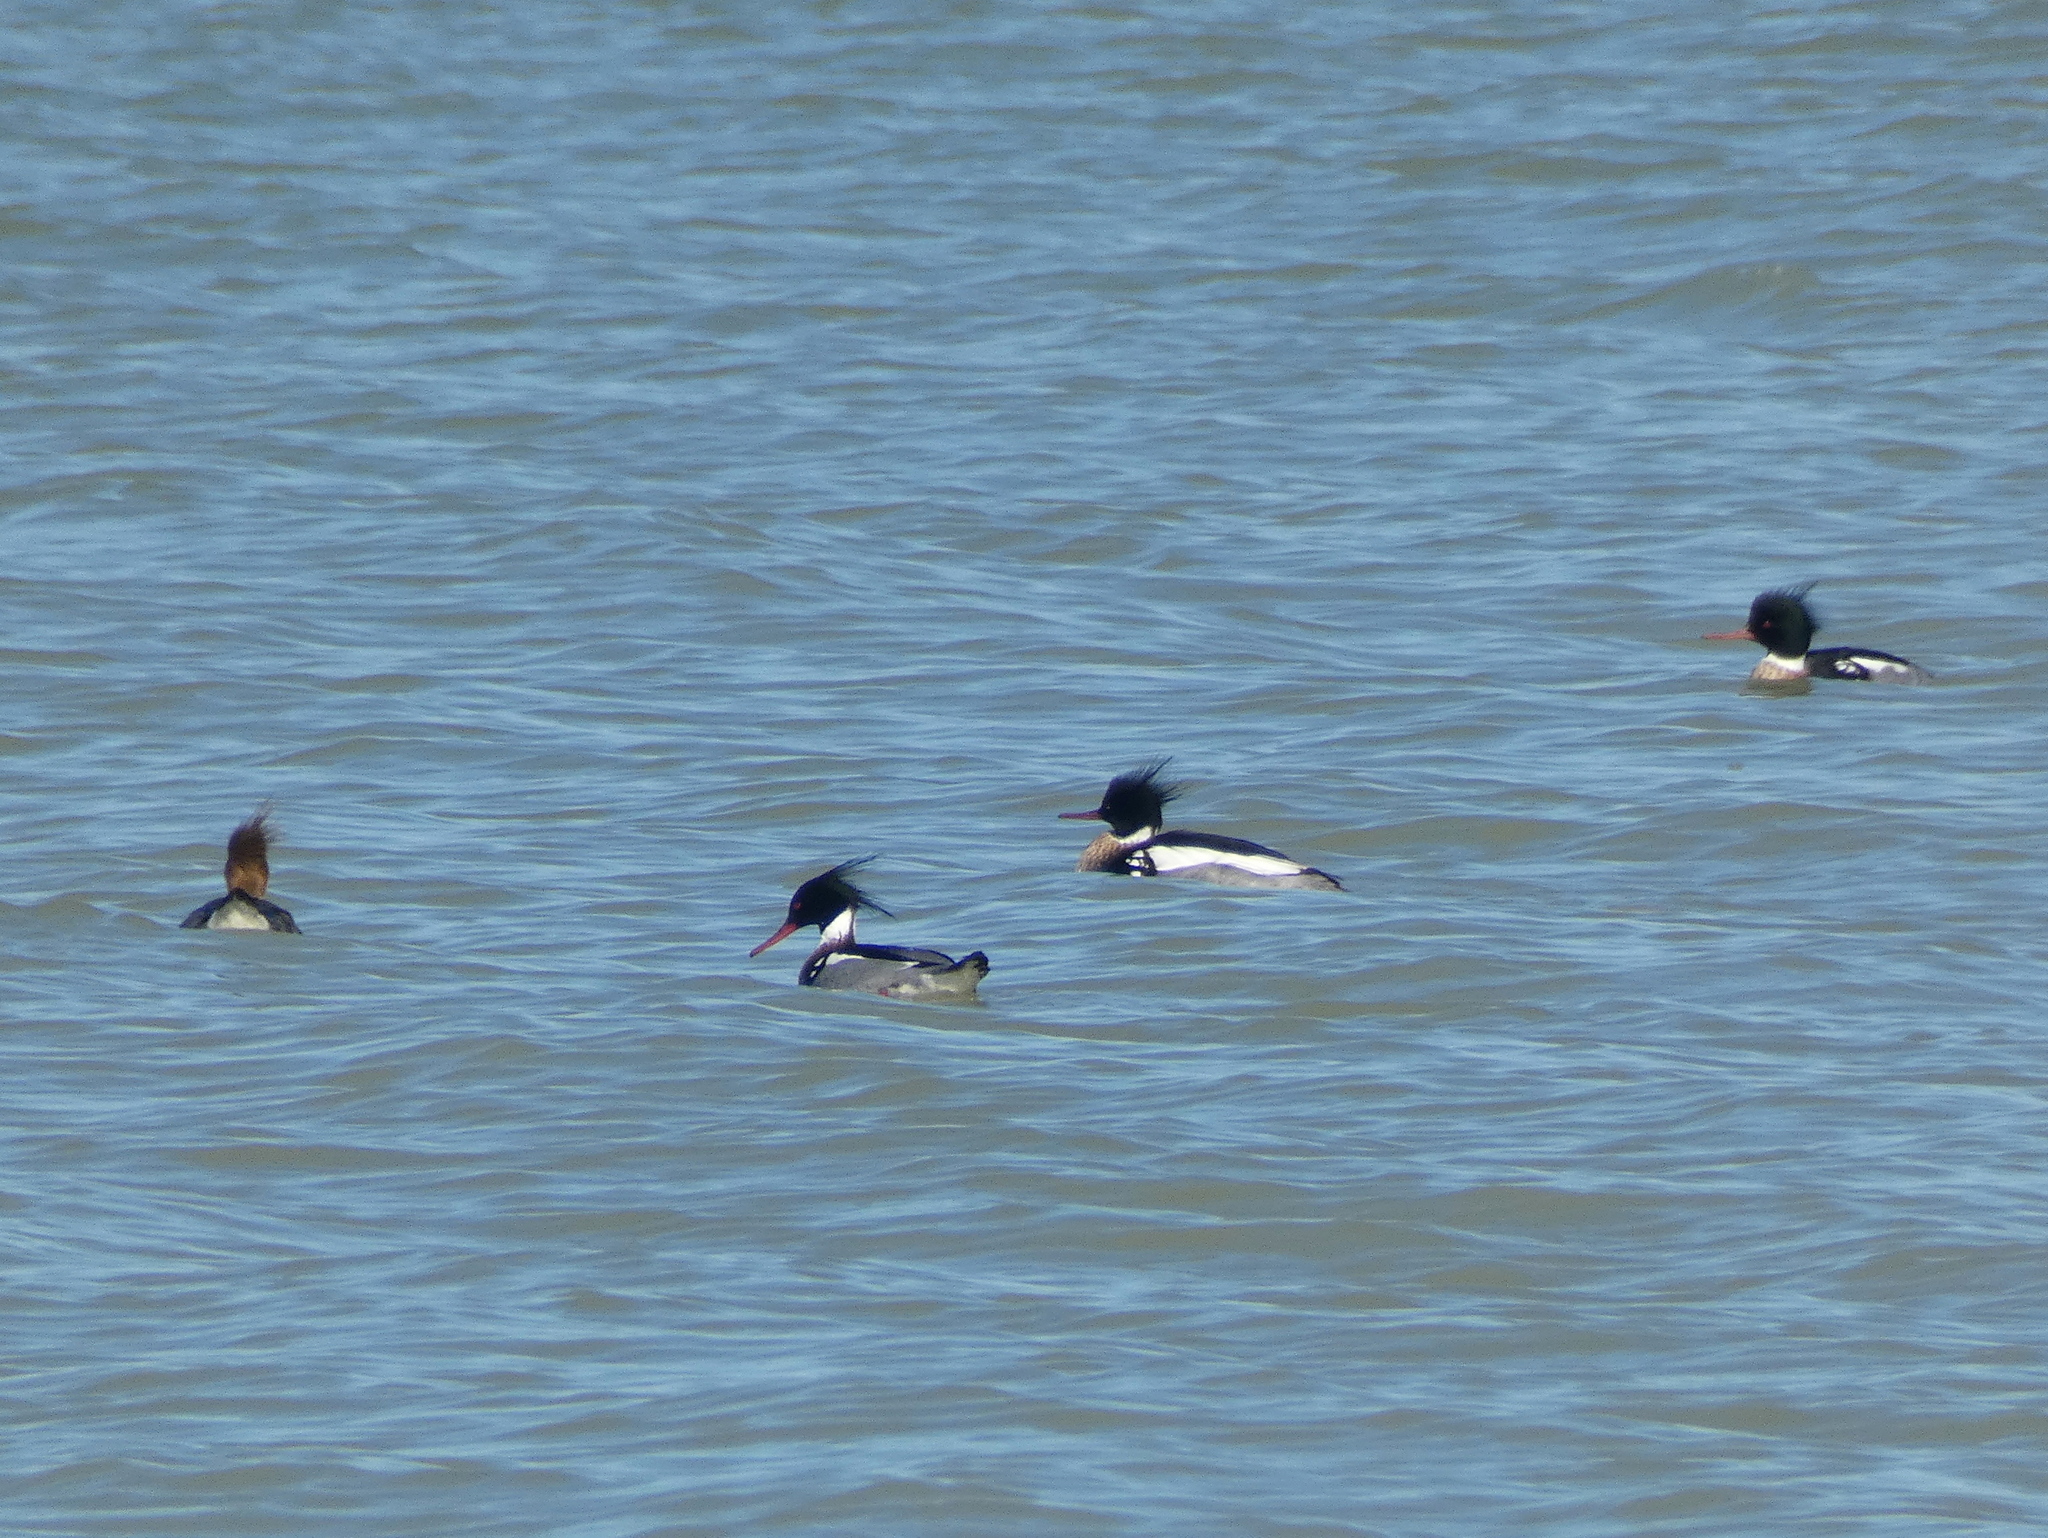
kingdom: Animalia
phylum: Chordata
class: Aves
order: Anseriformes
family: Anatidae
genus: Mergus
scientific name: Mergus serrator
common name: Red-breasted merganser
